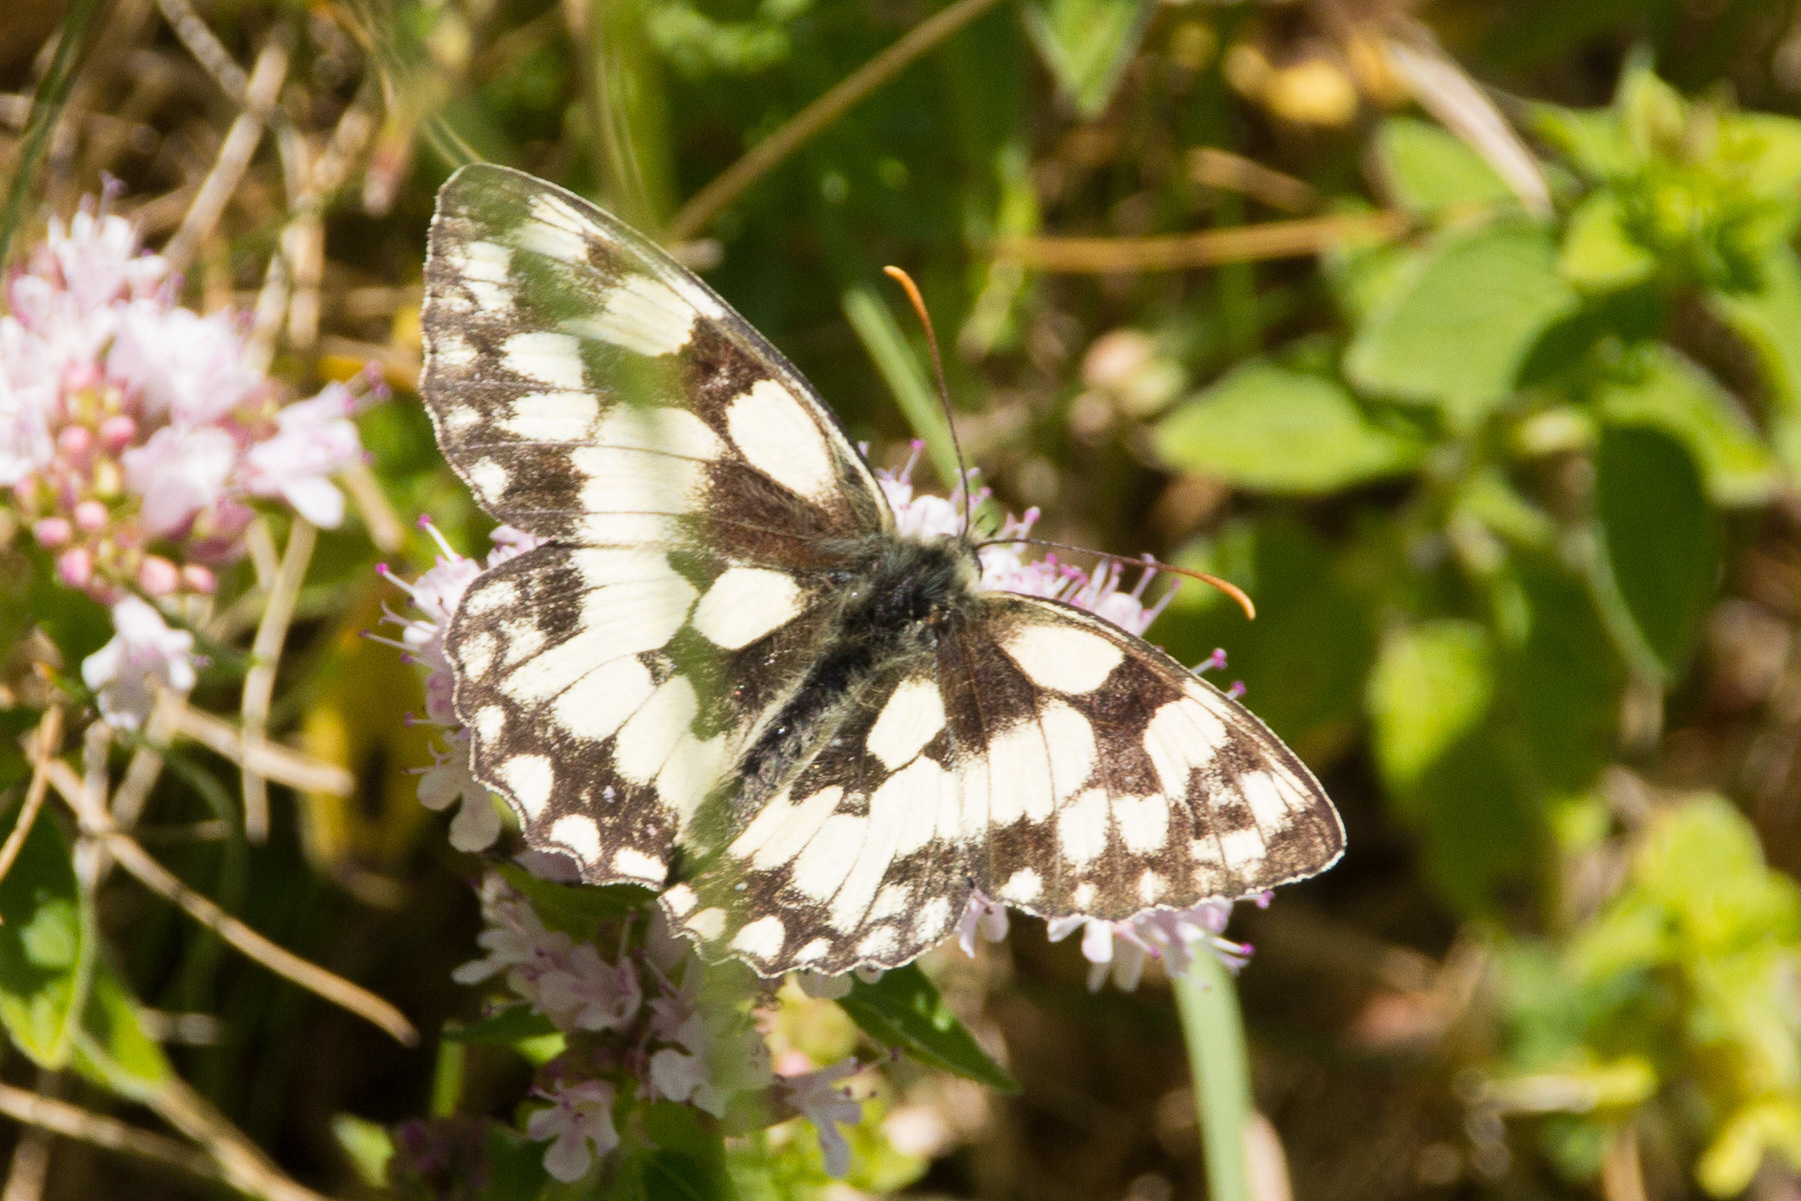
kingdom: Animalia
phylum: Arthropoda
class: Insecta
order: Lepidoptera
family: Nymphalidae
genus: Melanargia
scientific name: Melanargia galathea
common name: Marbled white
